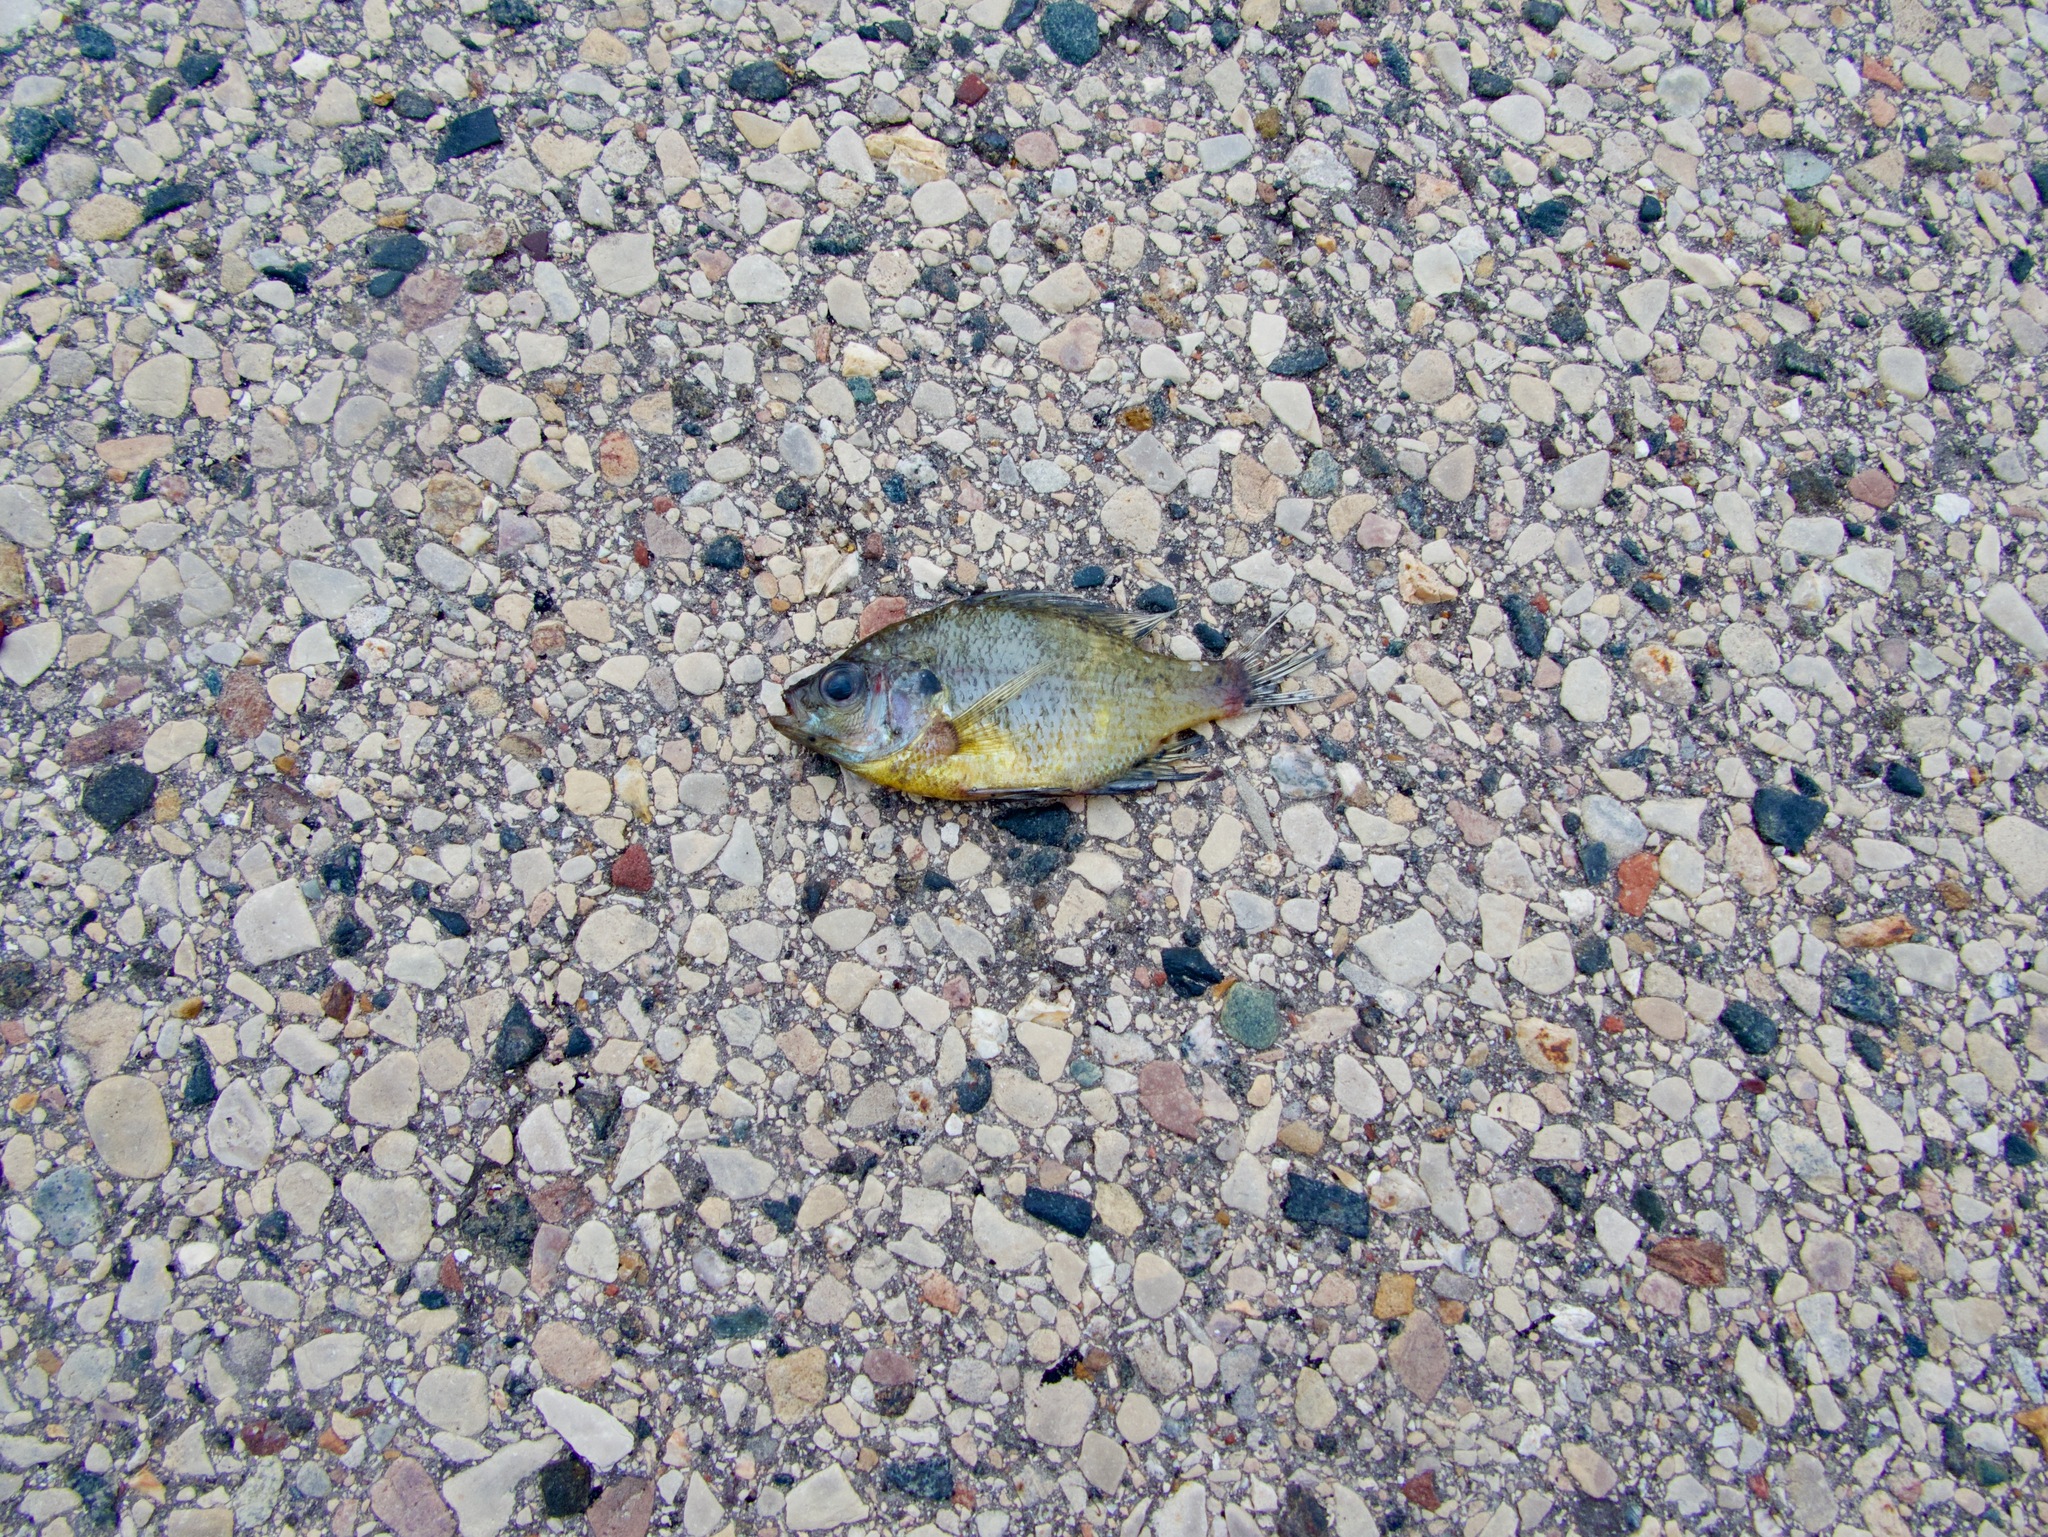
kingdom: Animalia
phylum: Chordata
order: Perciformes
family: Centrarchidae
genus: Lepomis
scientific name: Lepomis macrochirus
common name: Bluegill
